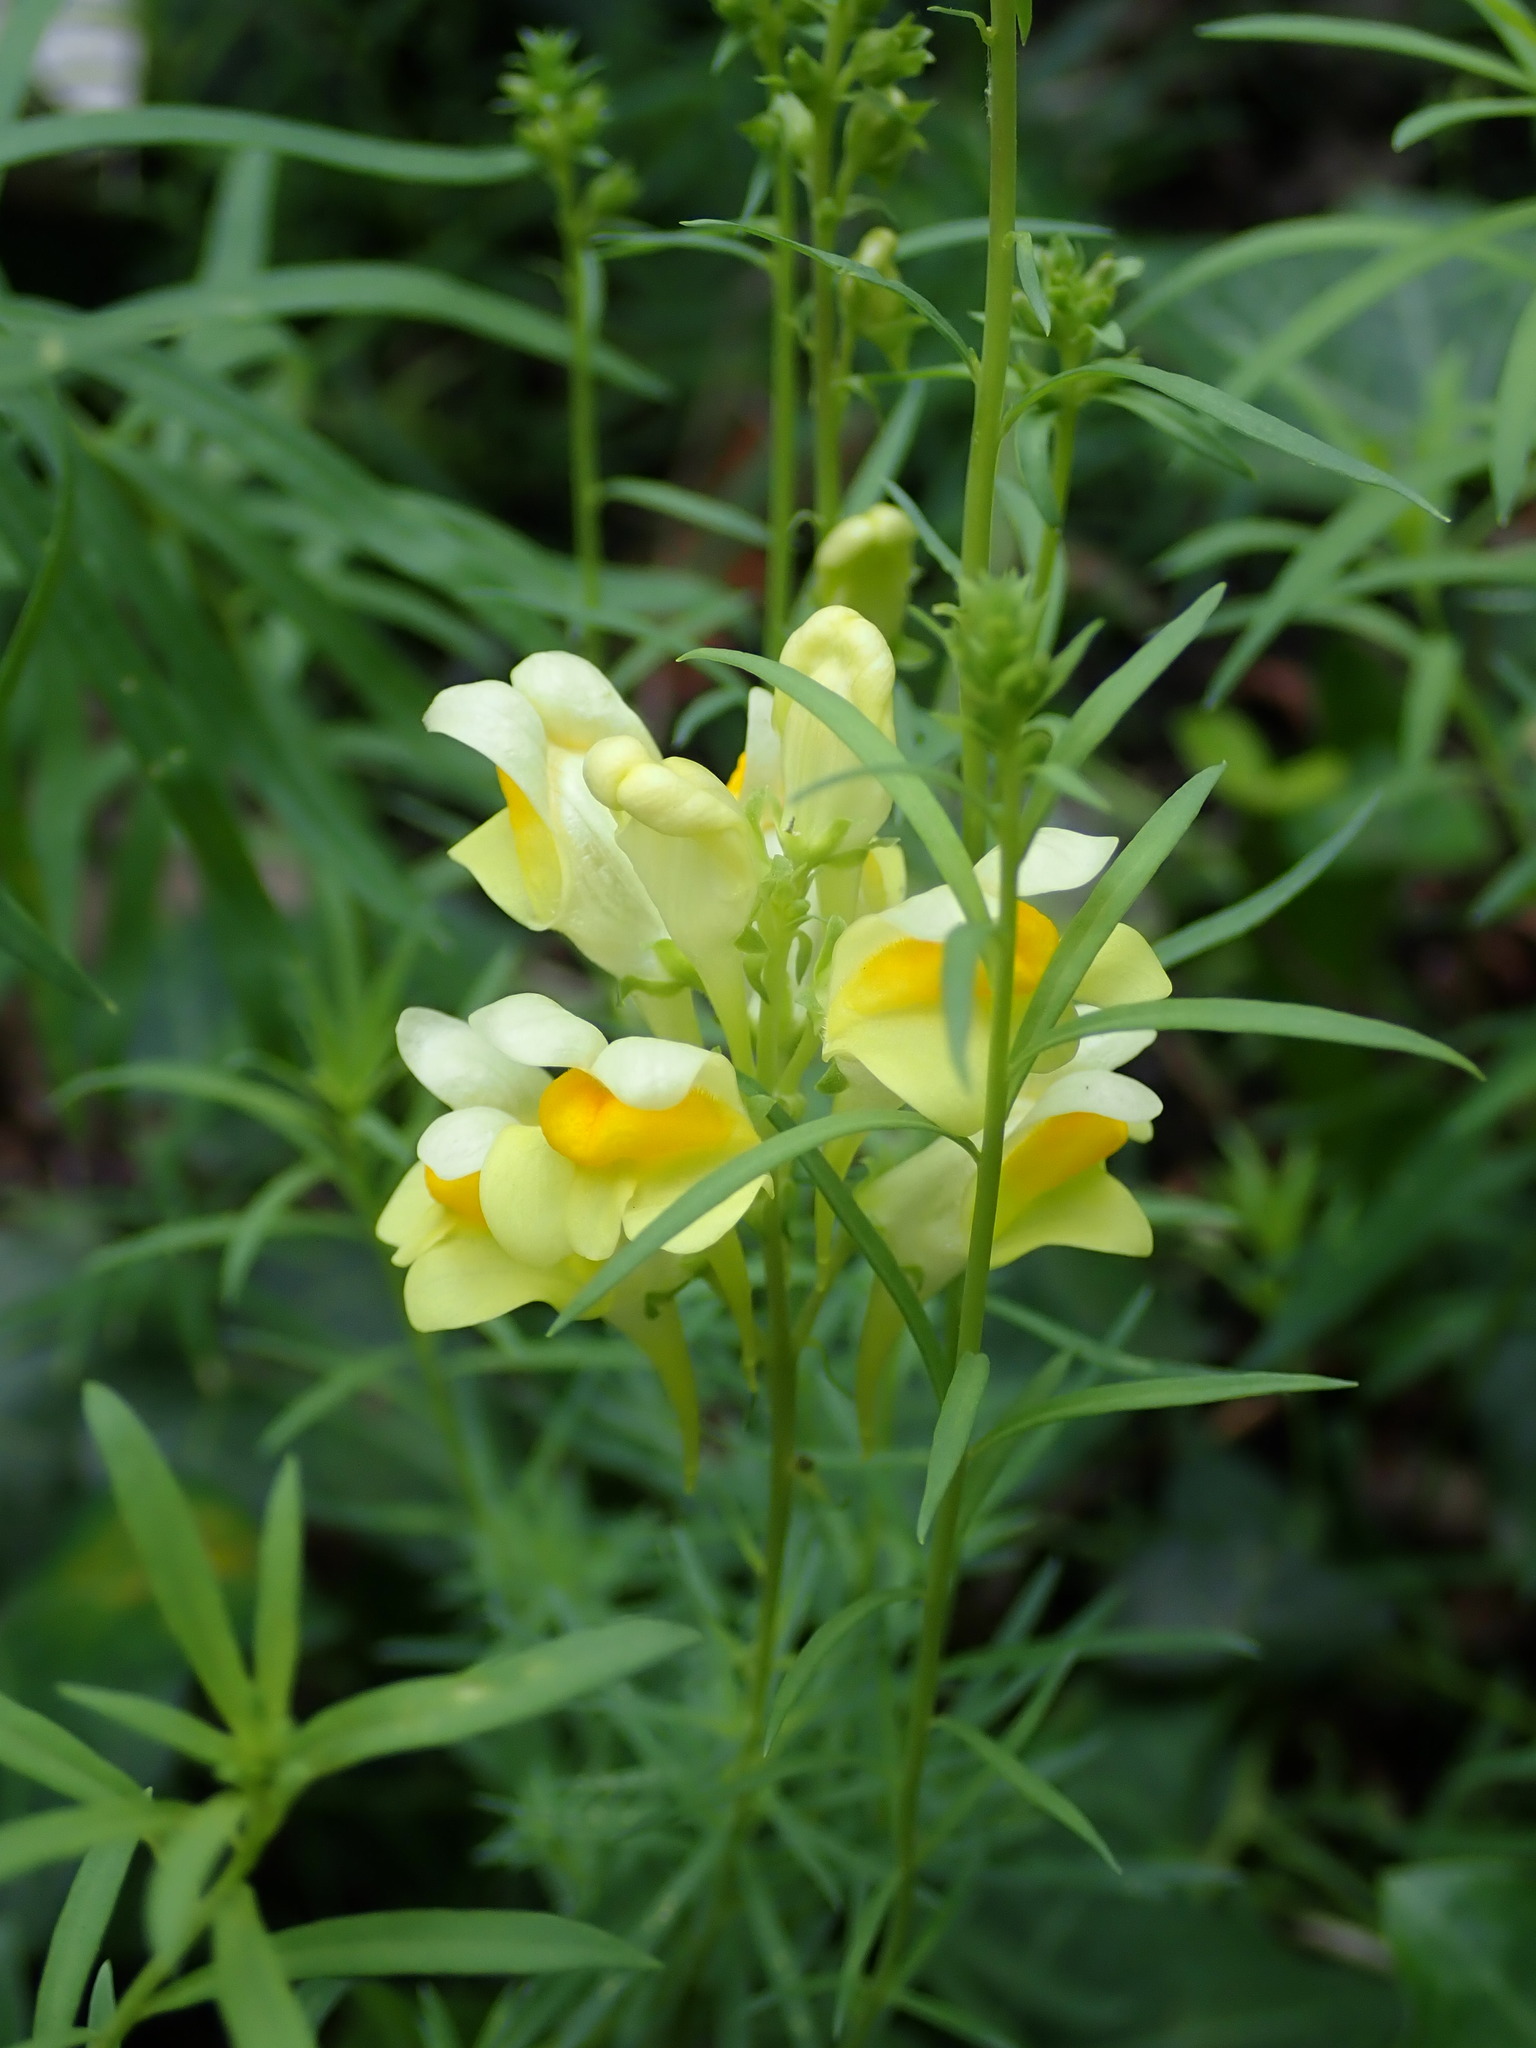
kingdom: Plantae
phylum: Tracheophyta
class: Magnoliopsida
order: Lamiales
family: Plantaginaceae
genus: Linaria
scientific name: Linaria vulgaris
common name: Butter and eggs
